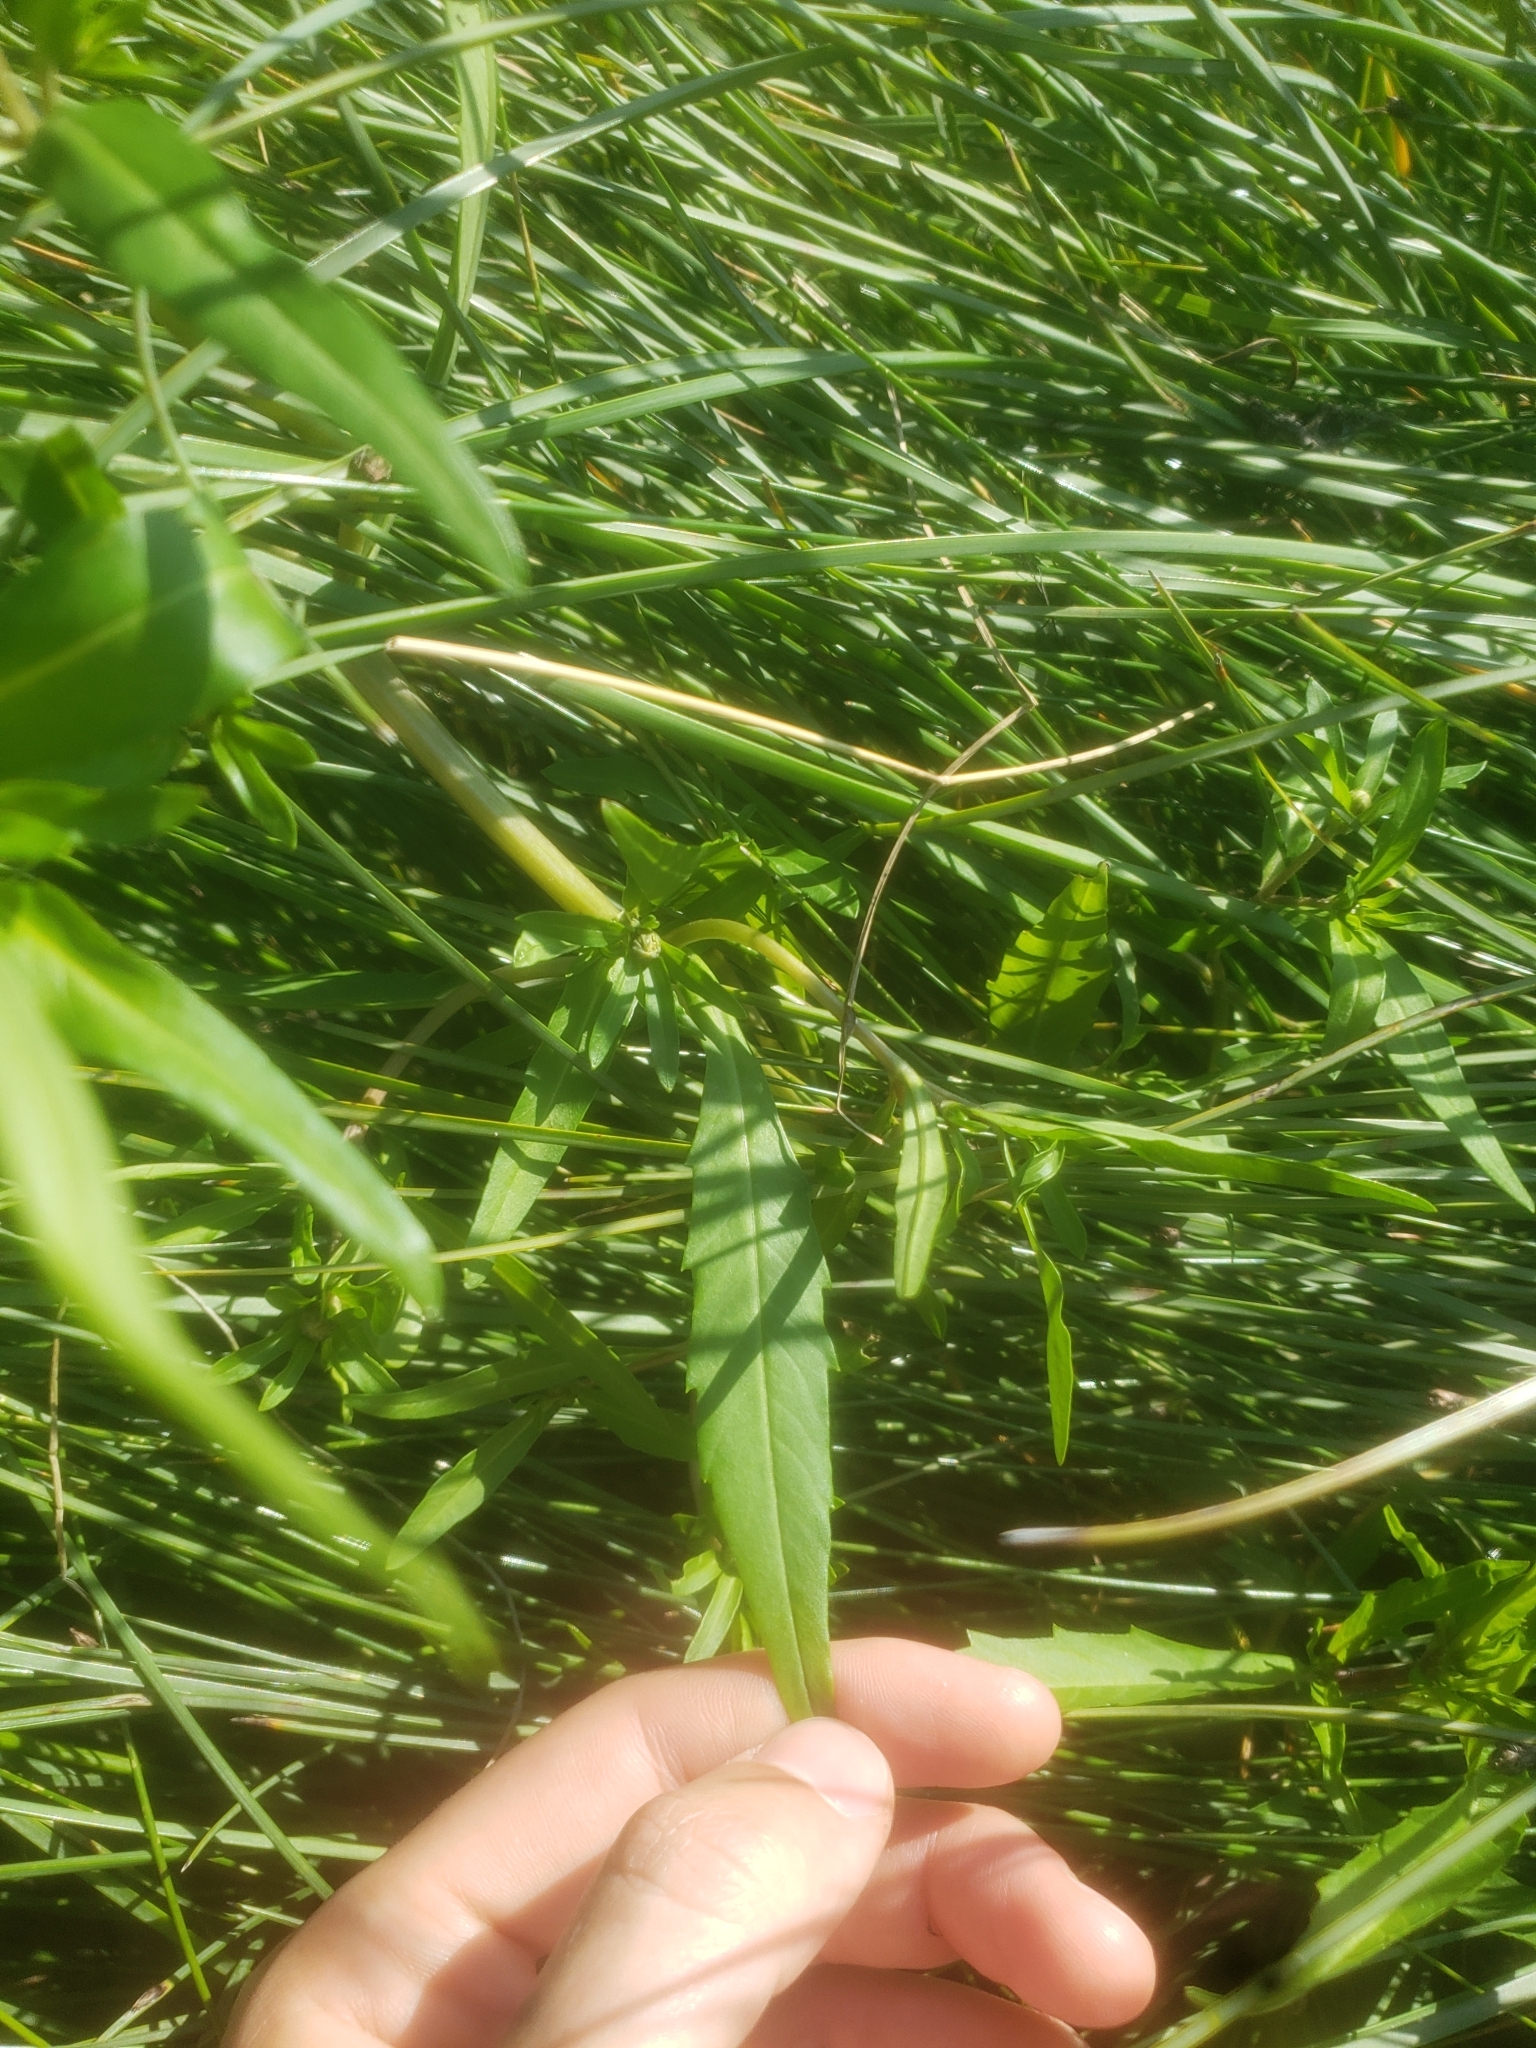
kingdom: Plantae
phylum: Tracheophyta
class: Magnoliopsida
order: Asterales
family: Asteraceae
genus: Bidens
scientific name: Bidens hyperborea
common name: Coastal beggarticks
